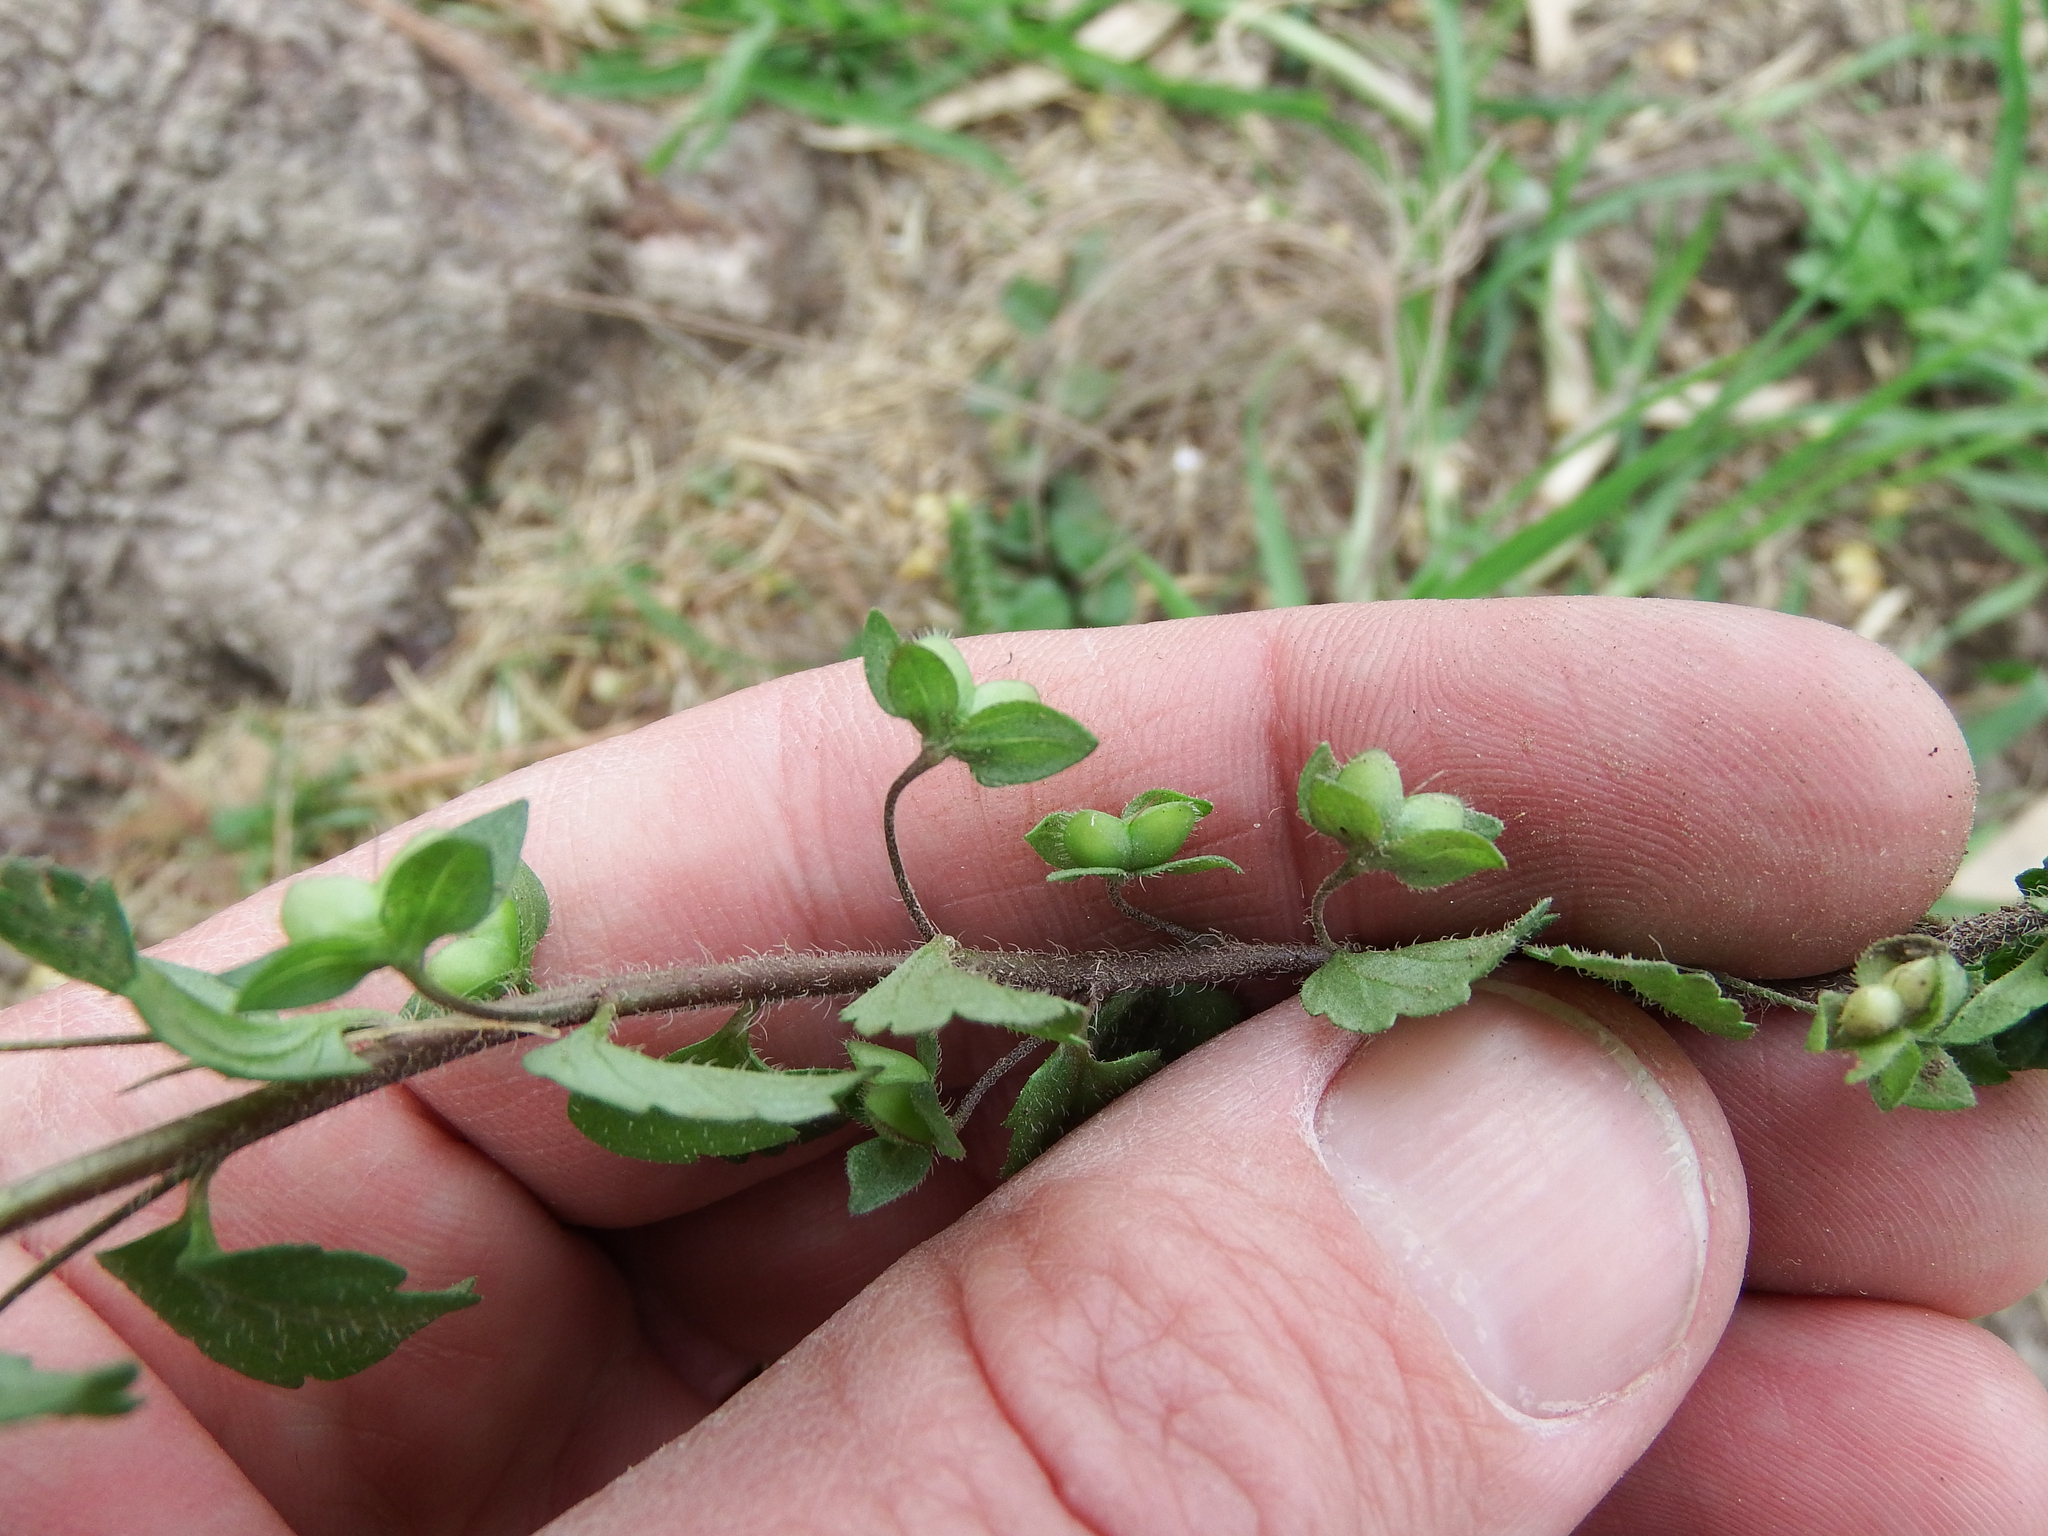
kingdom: Plantae
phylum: Tracheophyta
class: Magnoliopsida
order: Lamiales
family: Plantaginaceae
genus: Veronica
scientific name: Veronica persica
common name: Common field-speedwell
